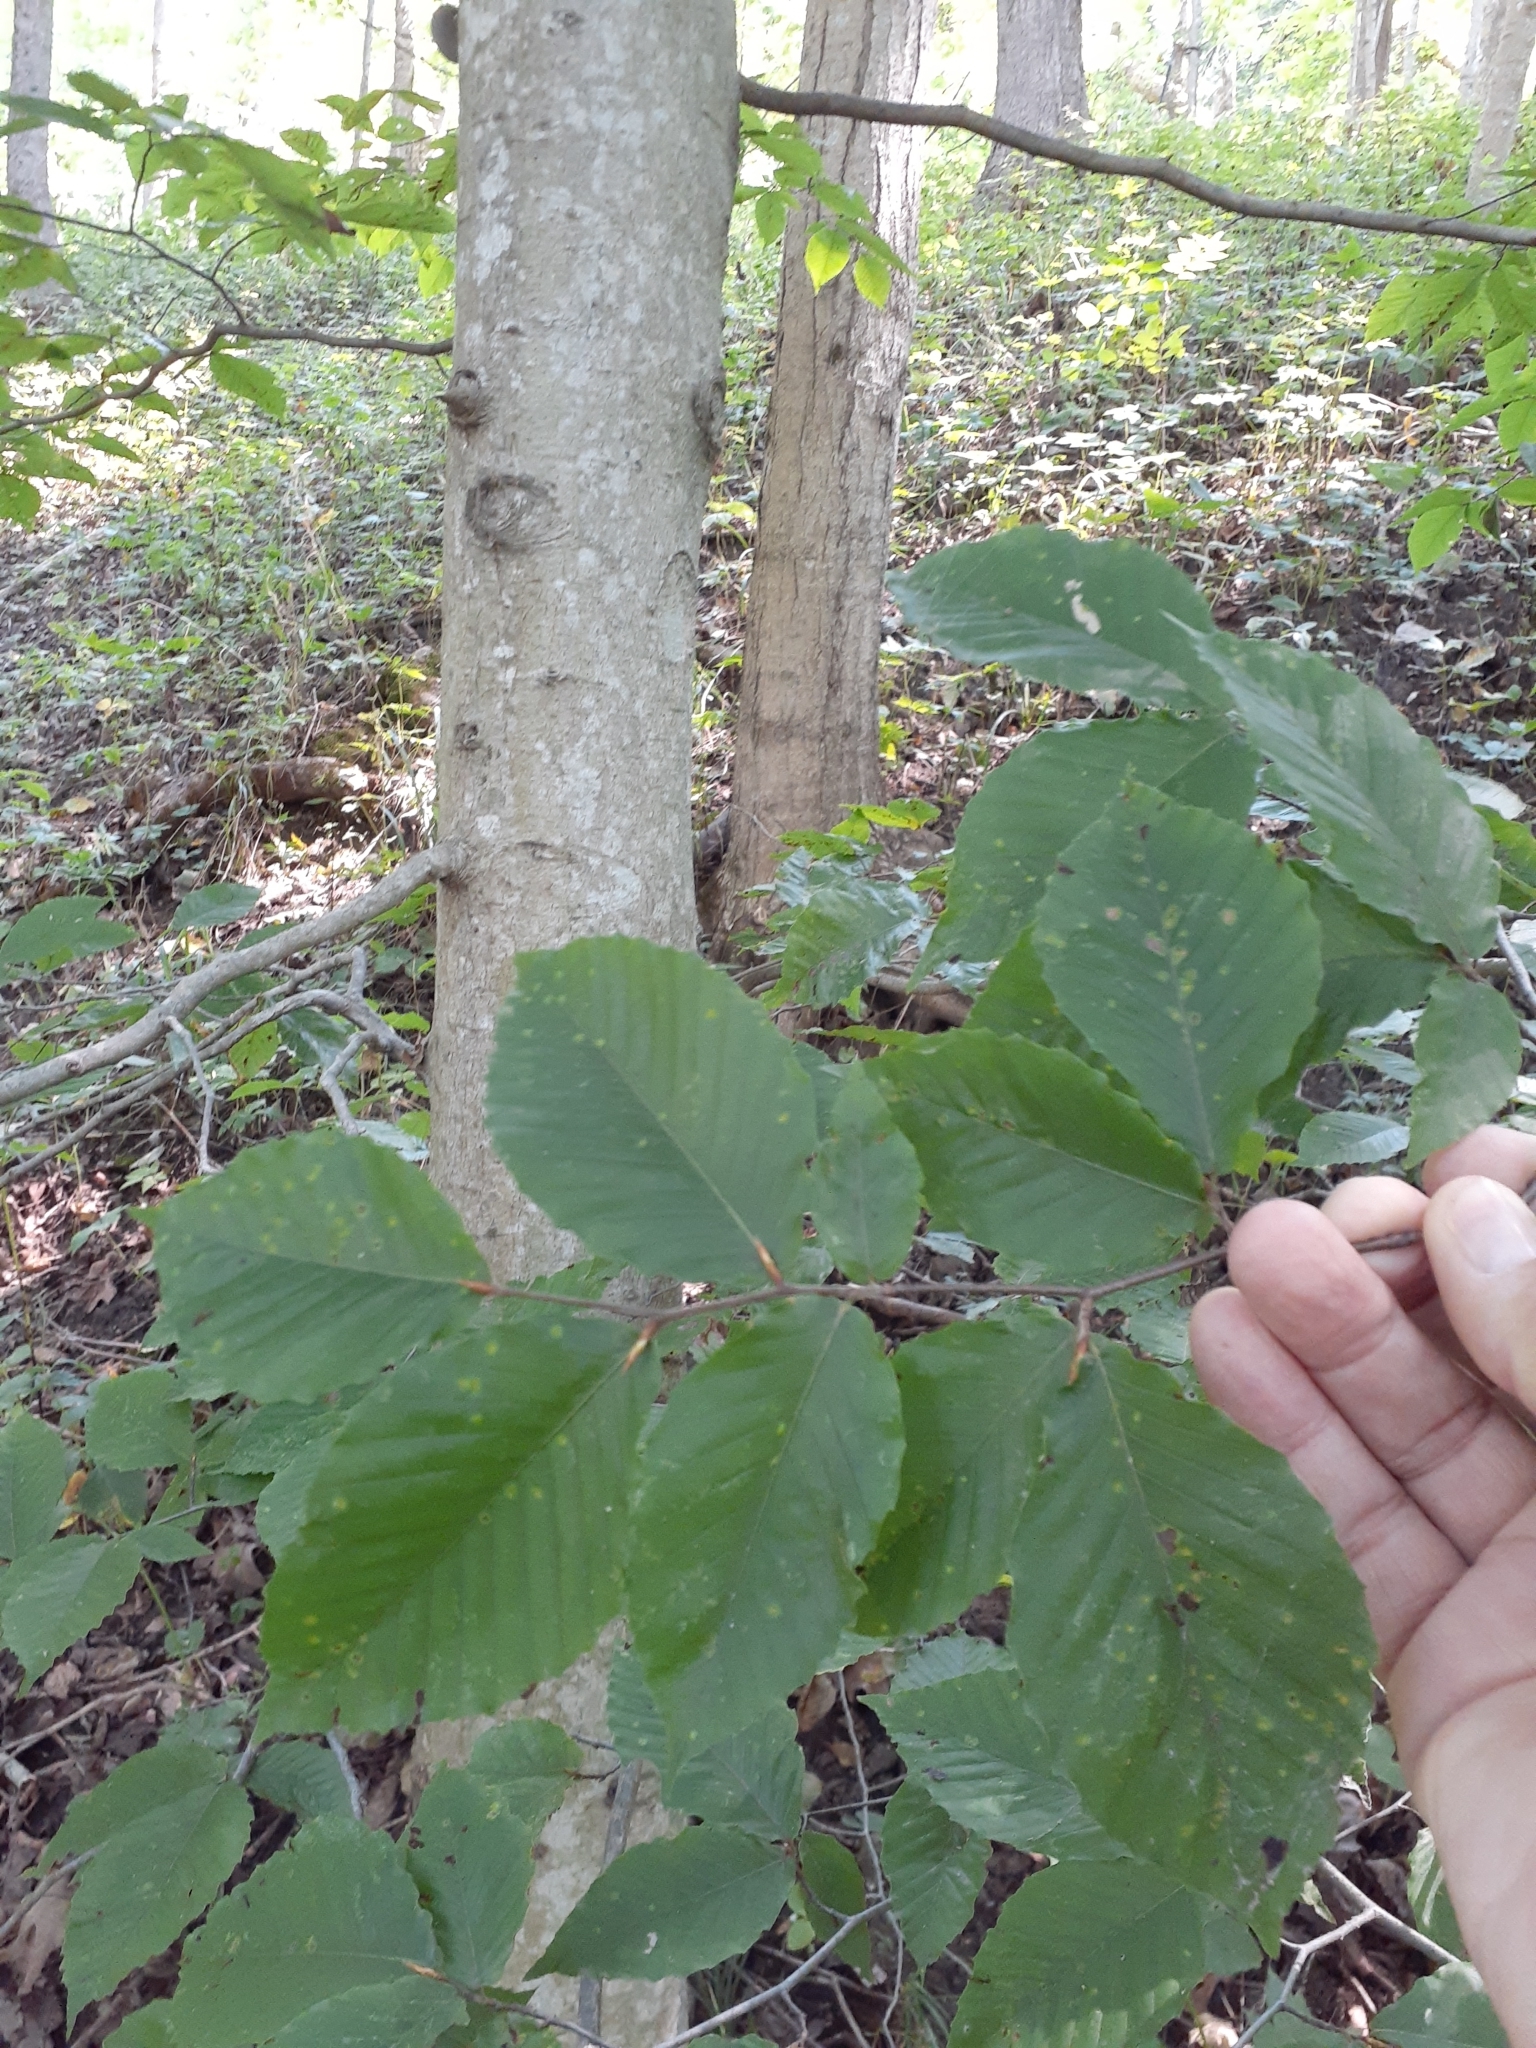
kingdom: Plantae
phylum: Tracheophyta
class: Magnoliopsida
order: Fagales
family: Fagaceae
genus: Fagus
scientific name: Fagus grandifolia
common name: American beech
